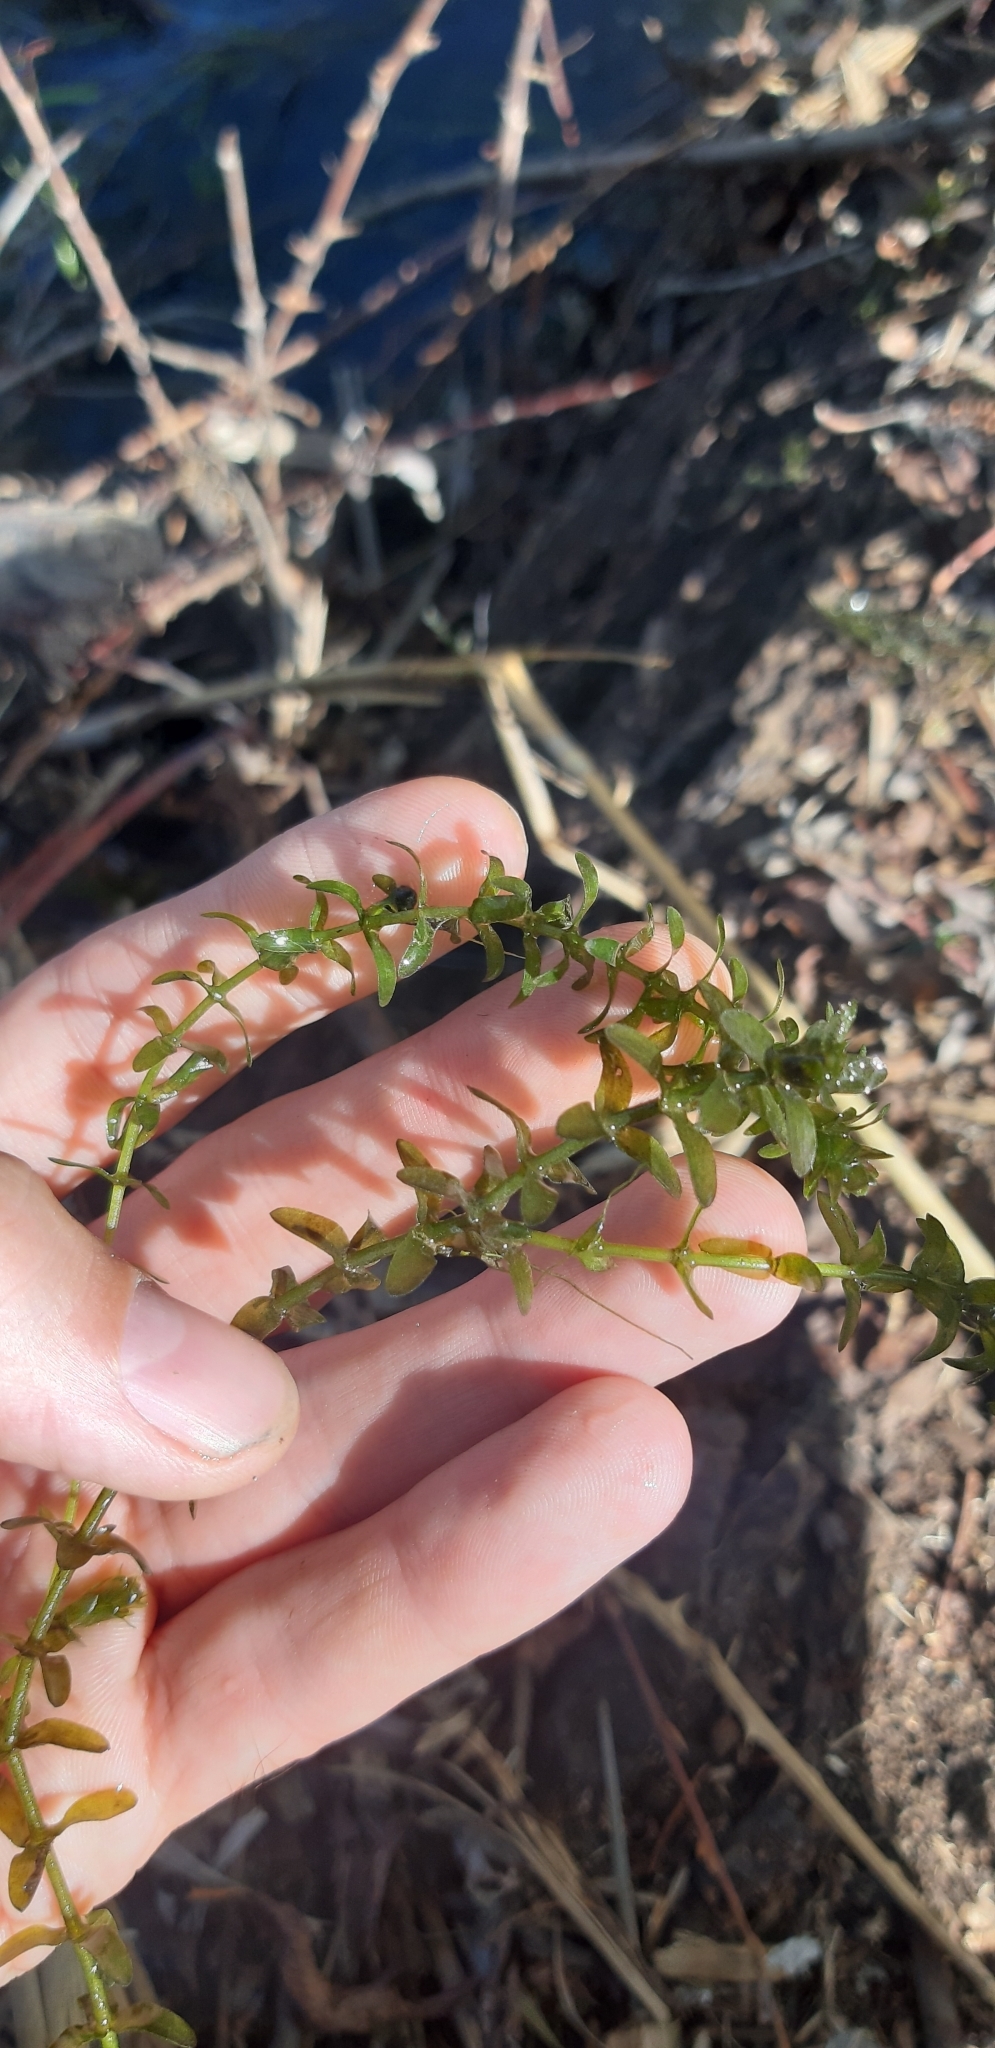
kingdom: Plantae
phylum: Tracheophyta
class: Liliopsida
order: Alismatales
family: Hydrocharitaceae
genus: Elodea
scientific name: Elodea canadensis
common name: Canadian waterweed
